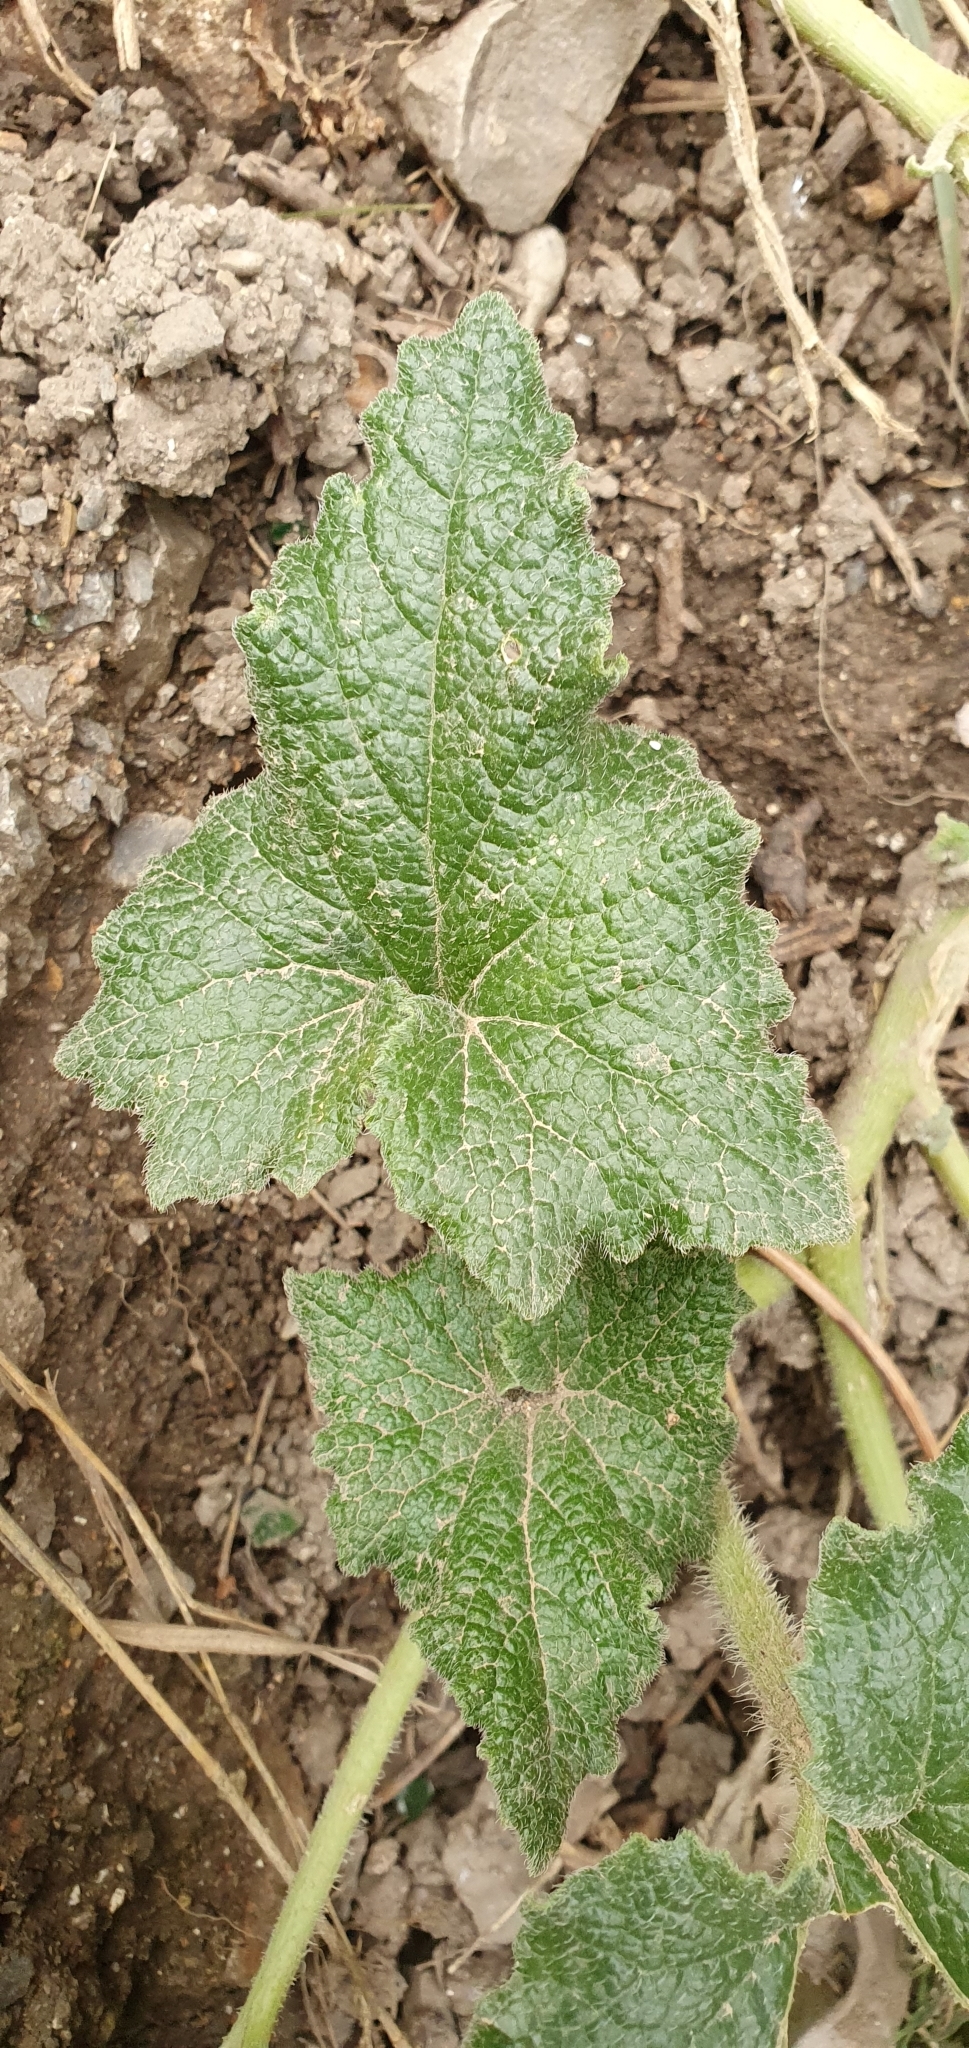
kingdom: Plantae
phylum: Tracheophyta
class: Magnoliopsida
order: Cucurbitales
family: Cucurbitaceae
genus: Ecballium
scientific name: Ecballium elaterium
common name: Squirting cucumber
